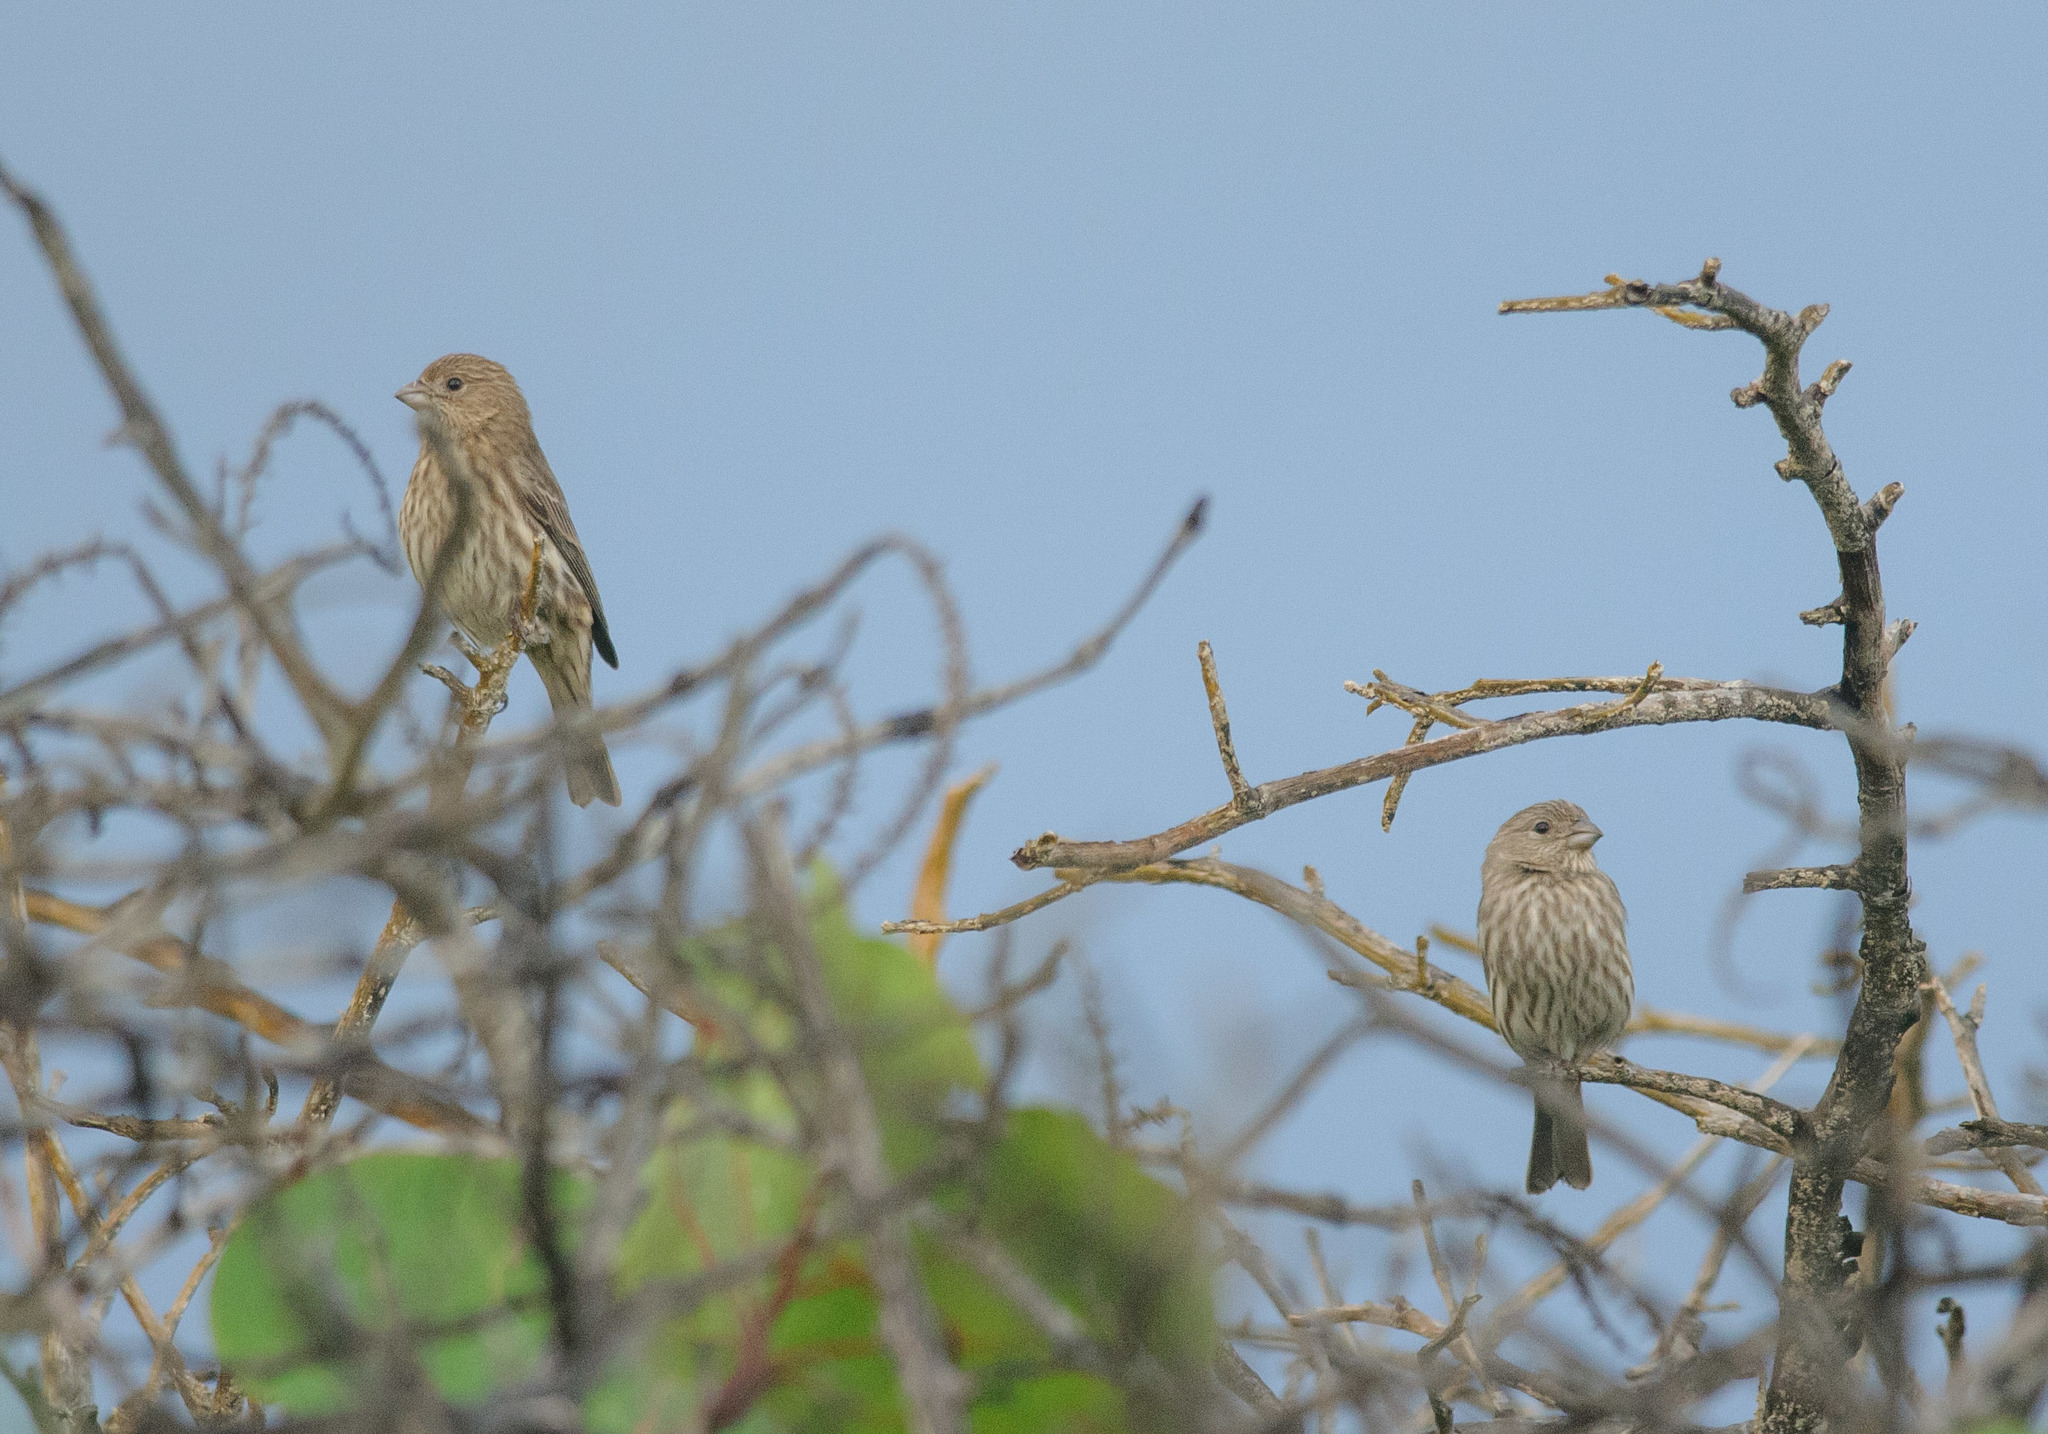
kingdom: Animalia
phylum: Chordata
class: Aves
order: Passeriformes
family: Fringillidae
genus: Haemorhous
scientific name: Haemorhous mexicanus
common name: House finch
